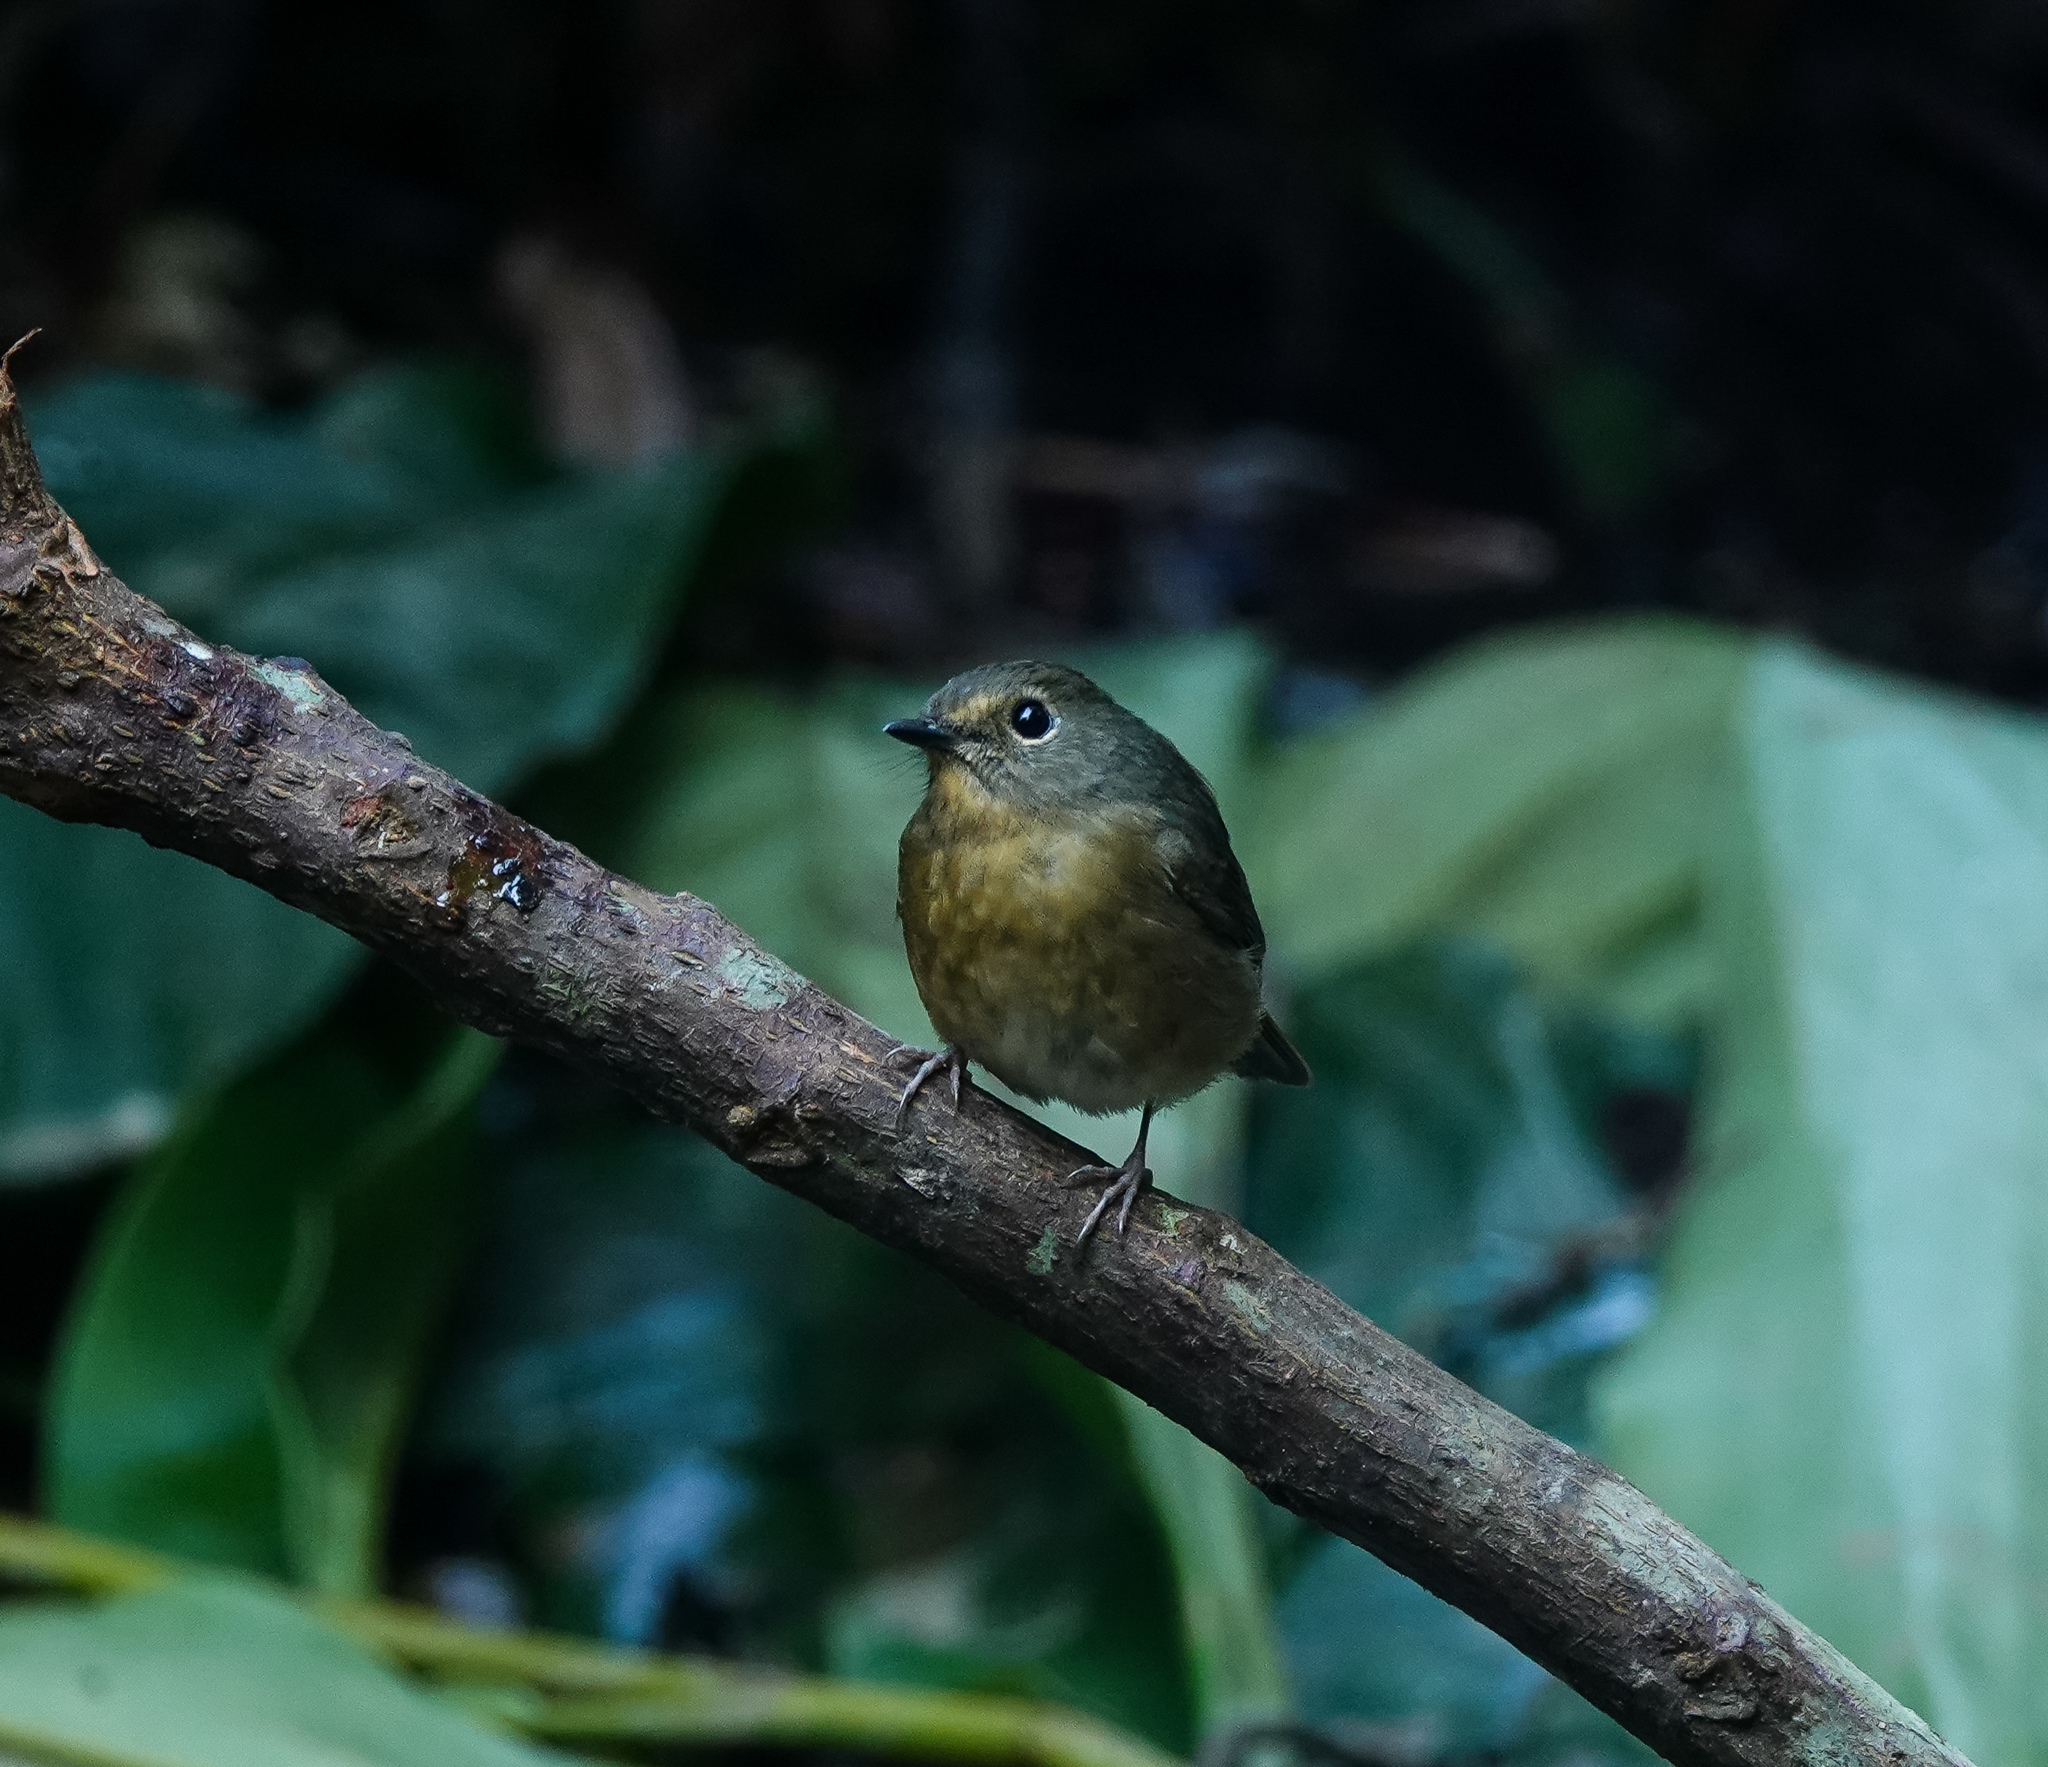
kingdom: Animalia
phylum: Chordata
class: Aves
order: Passeriformes
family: Muscicapidae
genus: Ficedula
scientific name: Ficedula hyperythra
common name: Snowy-browed flycatcher
